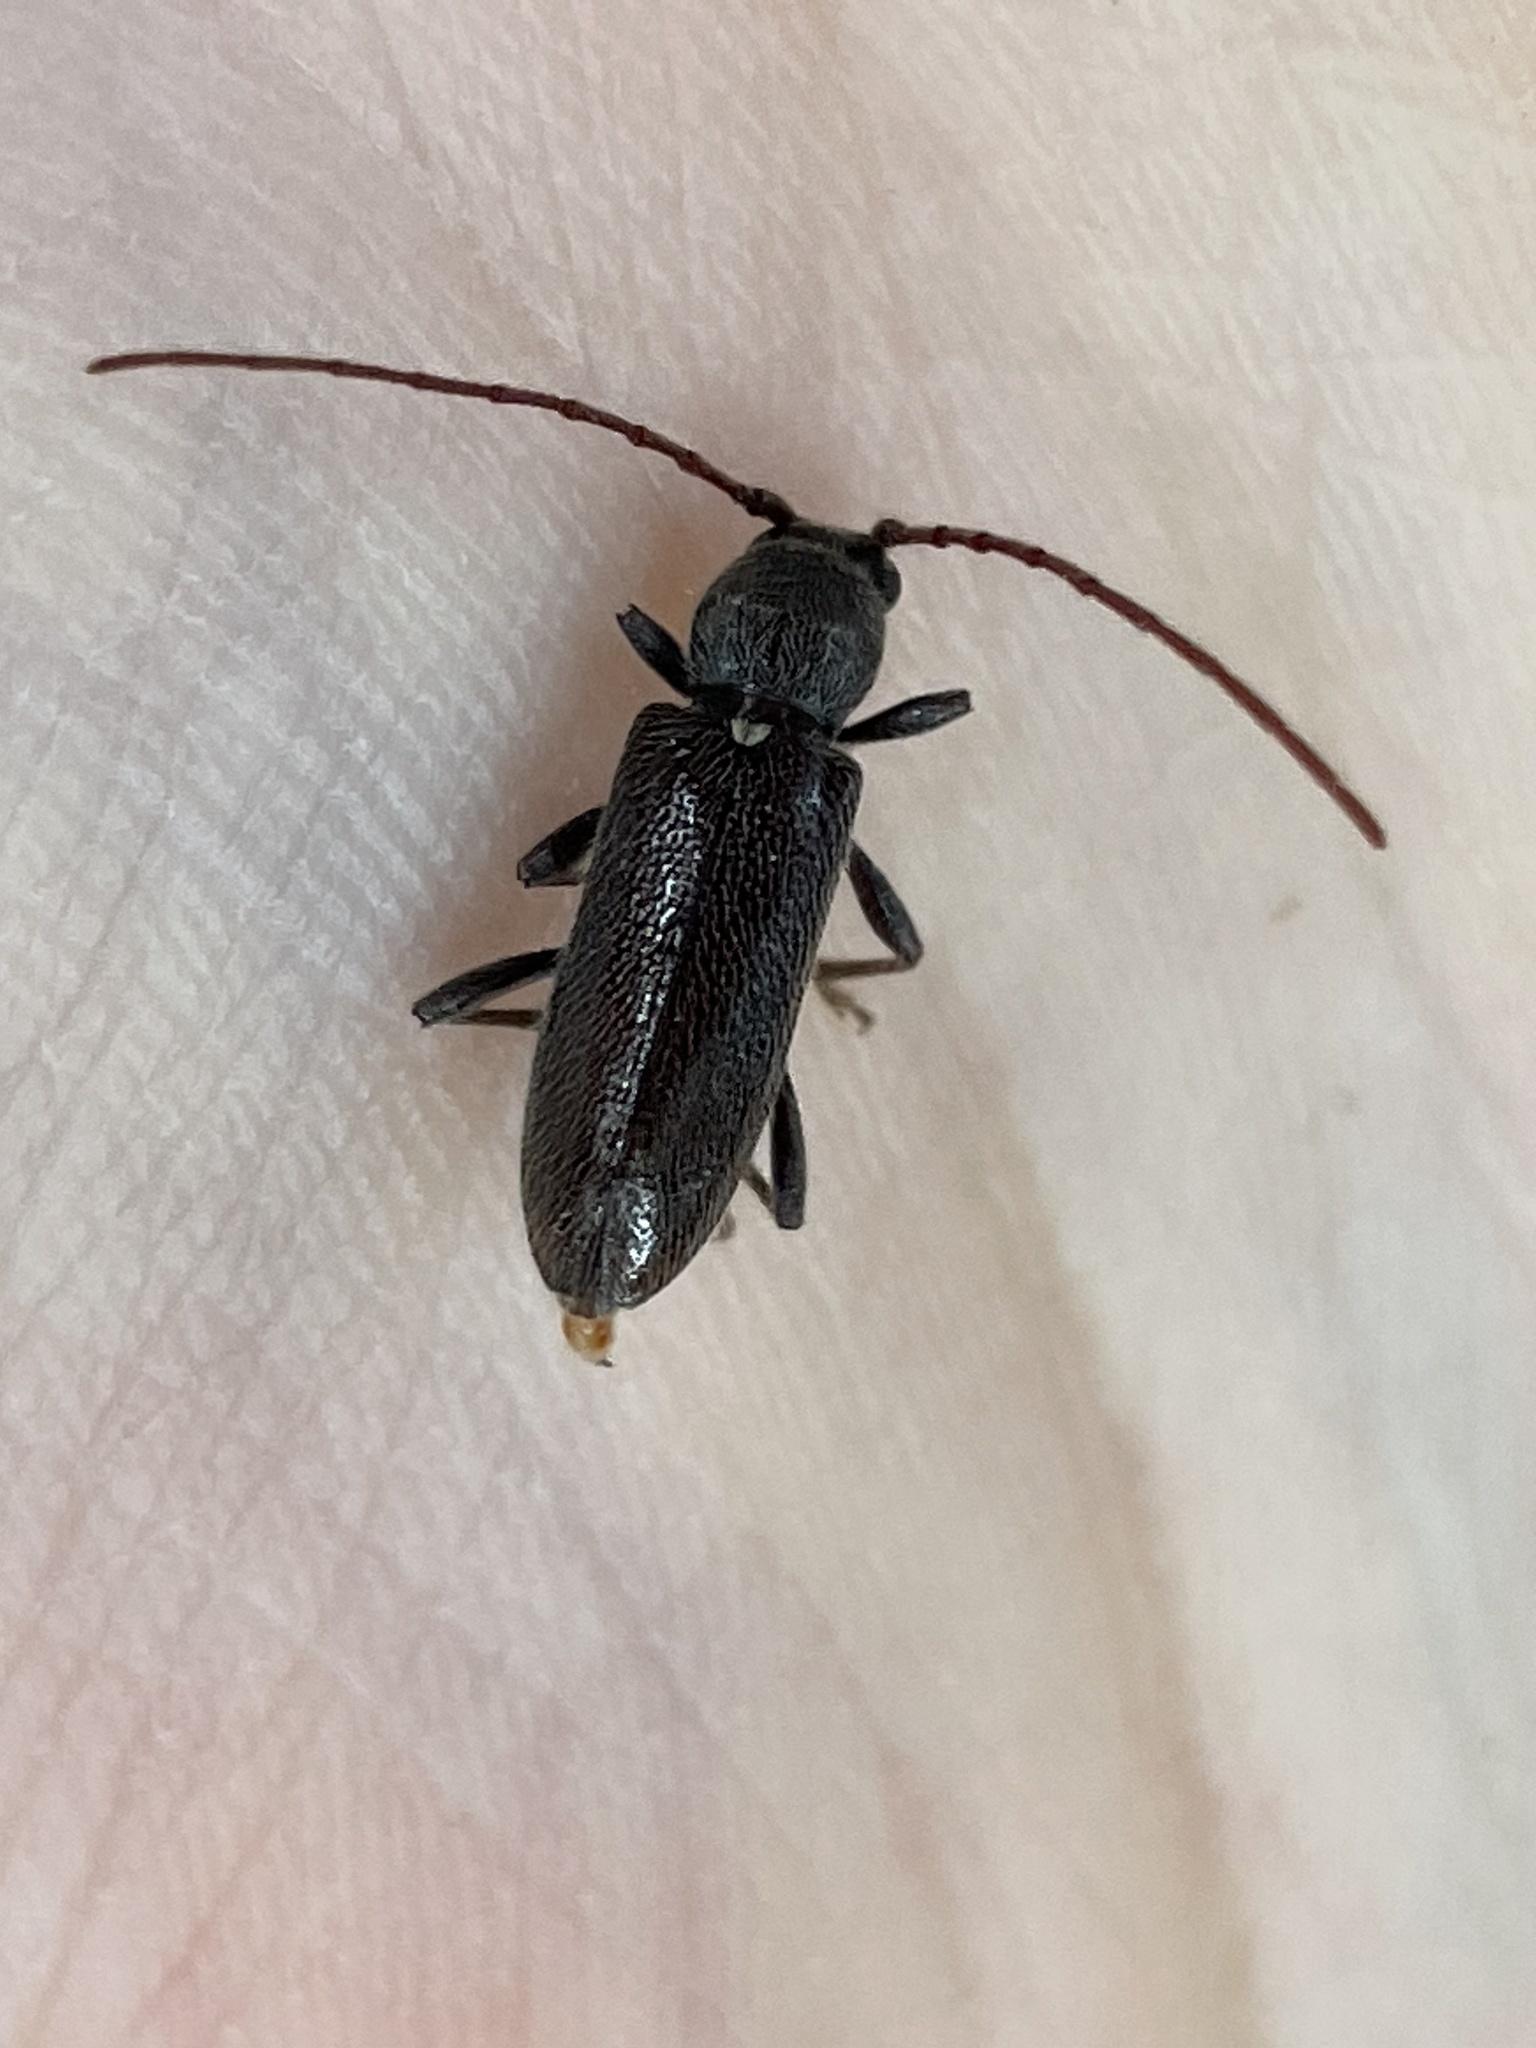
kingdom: Animalia
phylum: Arthropoda
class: Insecta
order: Coleoptera
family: Cerambycidae
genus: Anelaphus
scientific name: Anelaphus moestus
